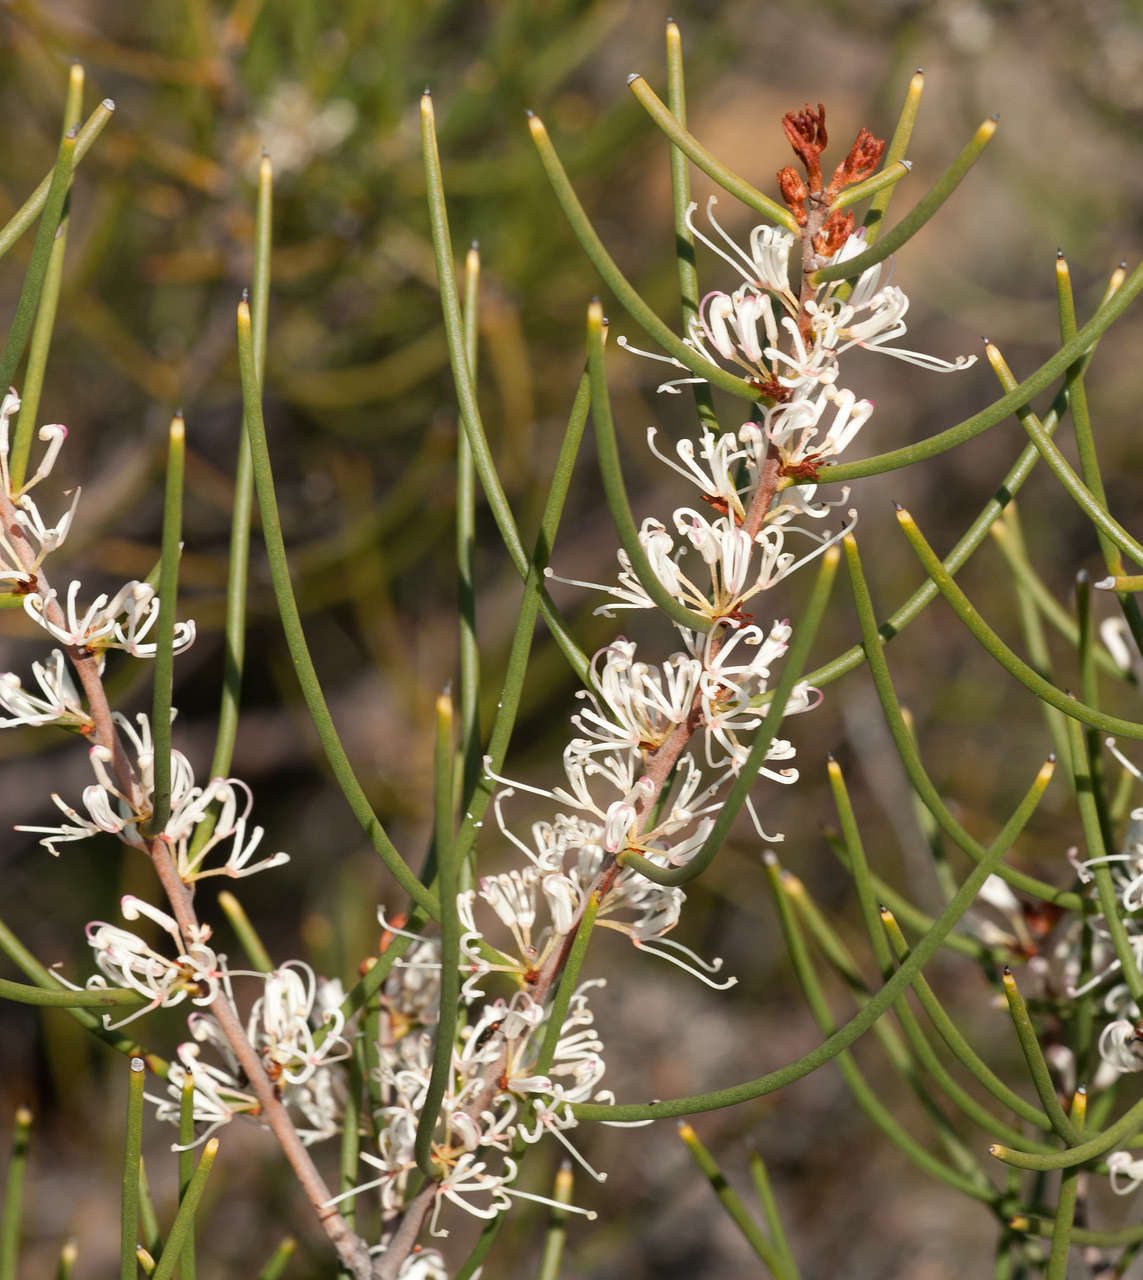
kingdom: Plantae
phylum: Tracheophyta
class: Magnoliopsida
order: Proteales
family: Proteaceae
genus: Hakea
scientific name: Hakea rostrata
